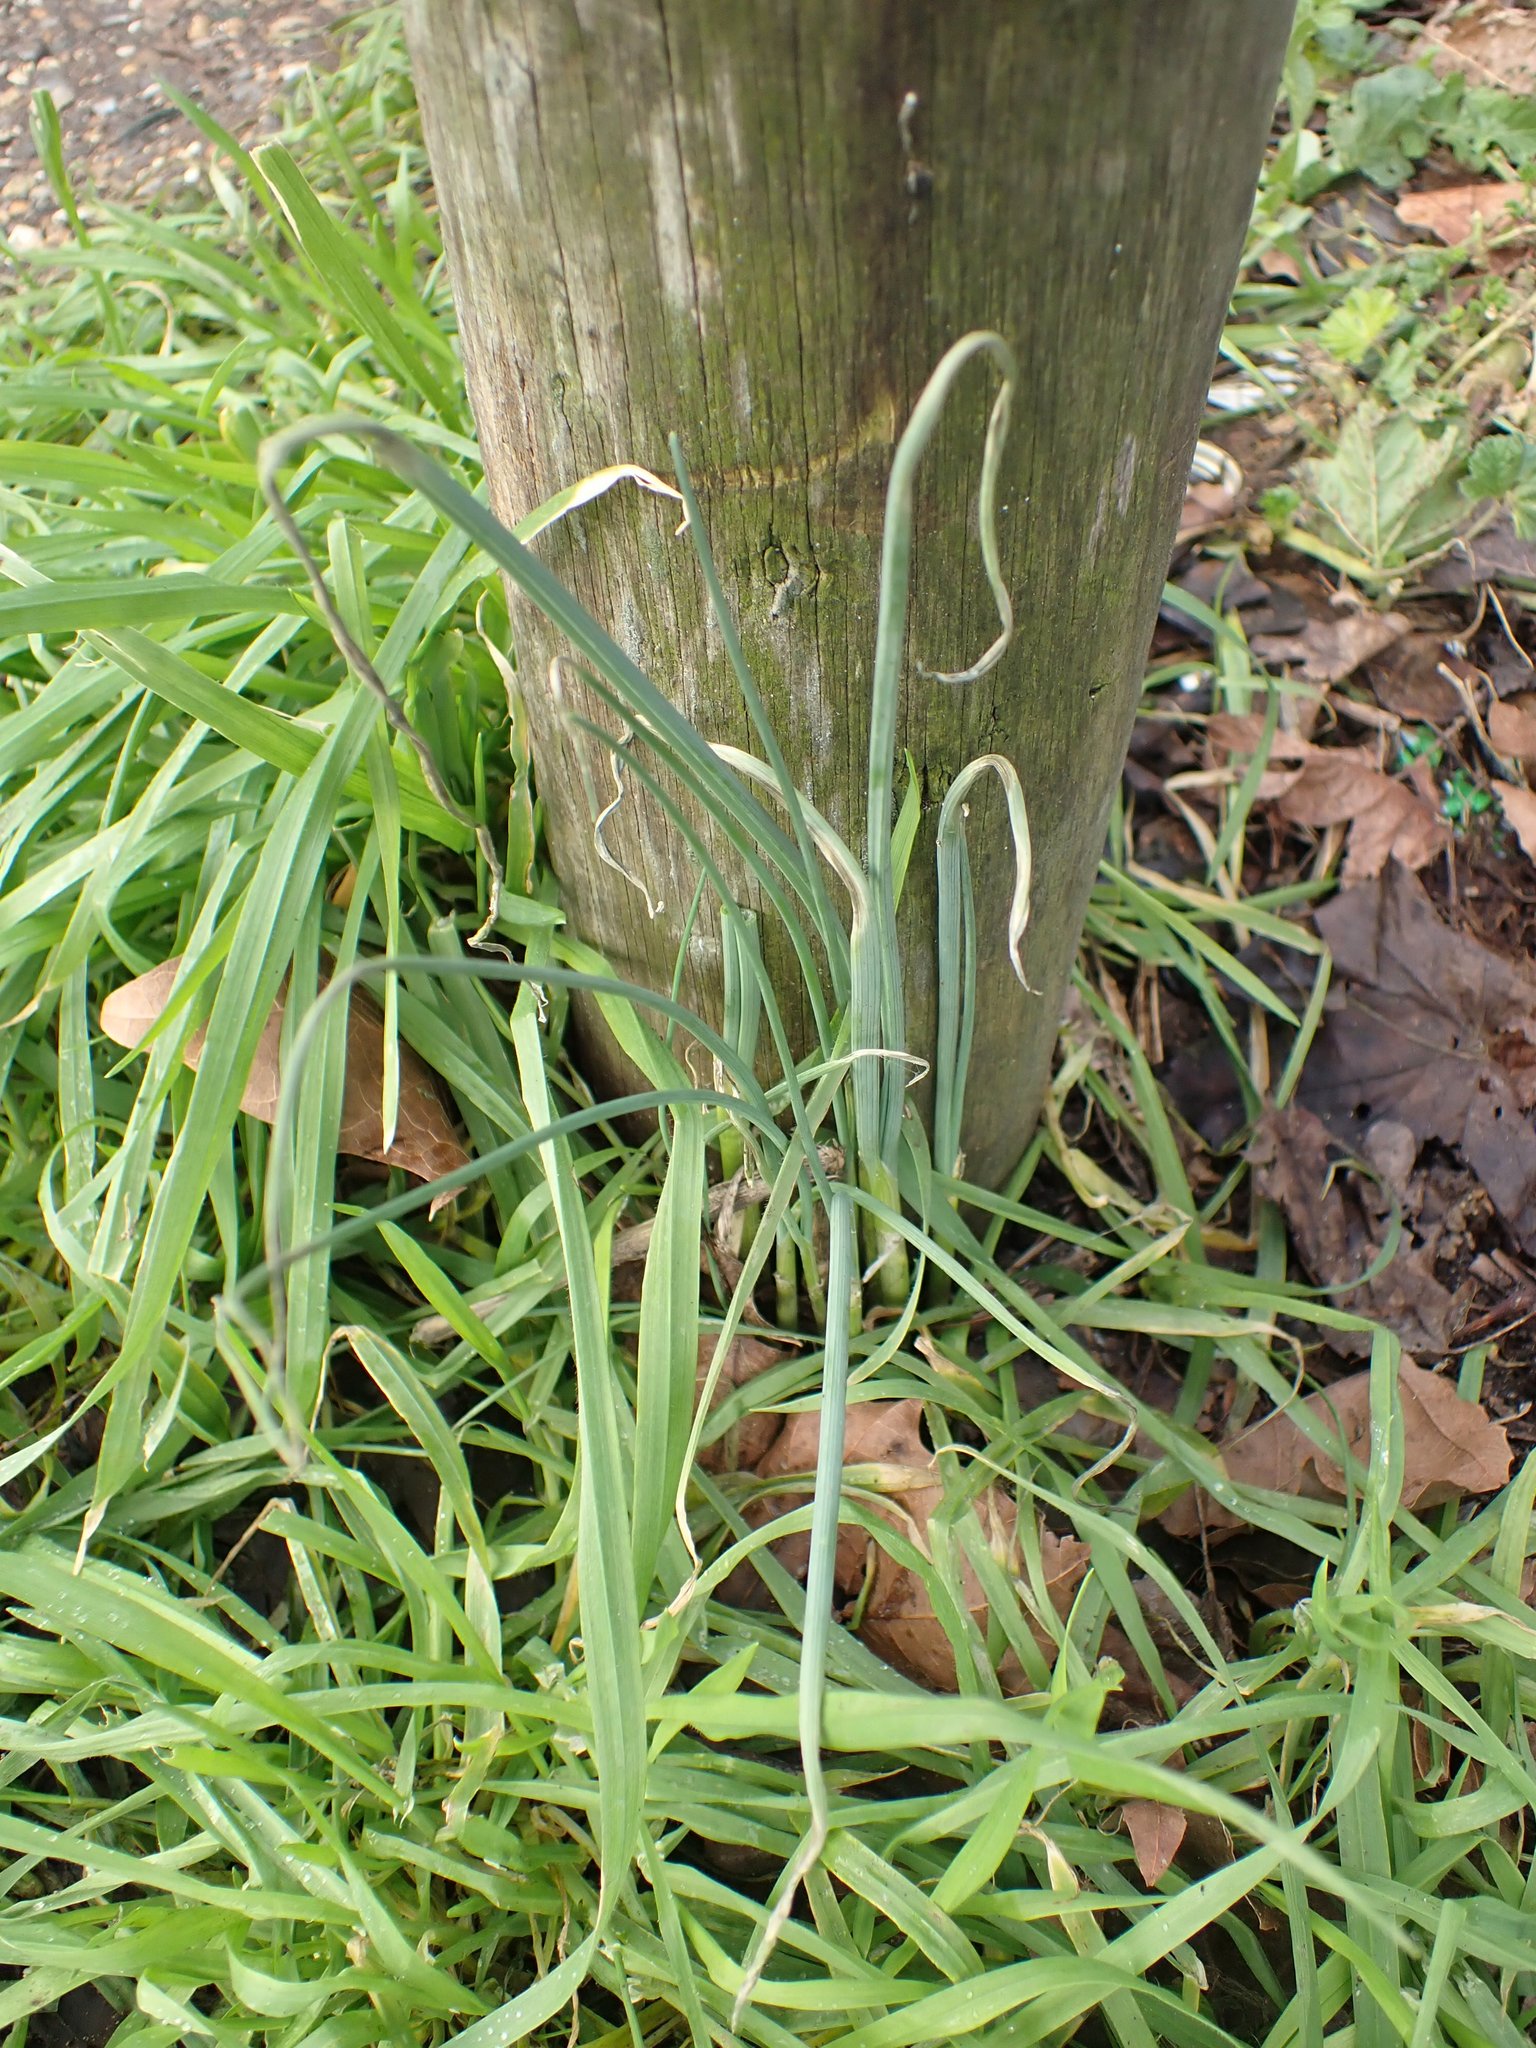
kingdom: Plantae
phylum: Tracheophyta
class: Liliopsida
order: Asparagales
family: Amaryllidaceae
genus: Allium
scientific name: Allium vineale
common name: Crow garlic
